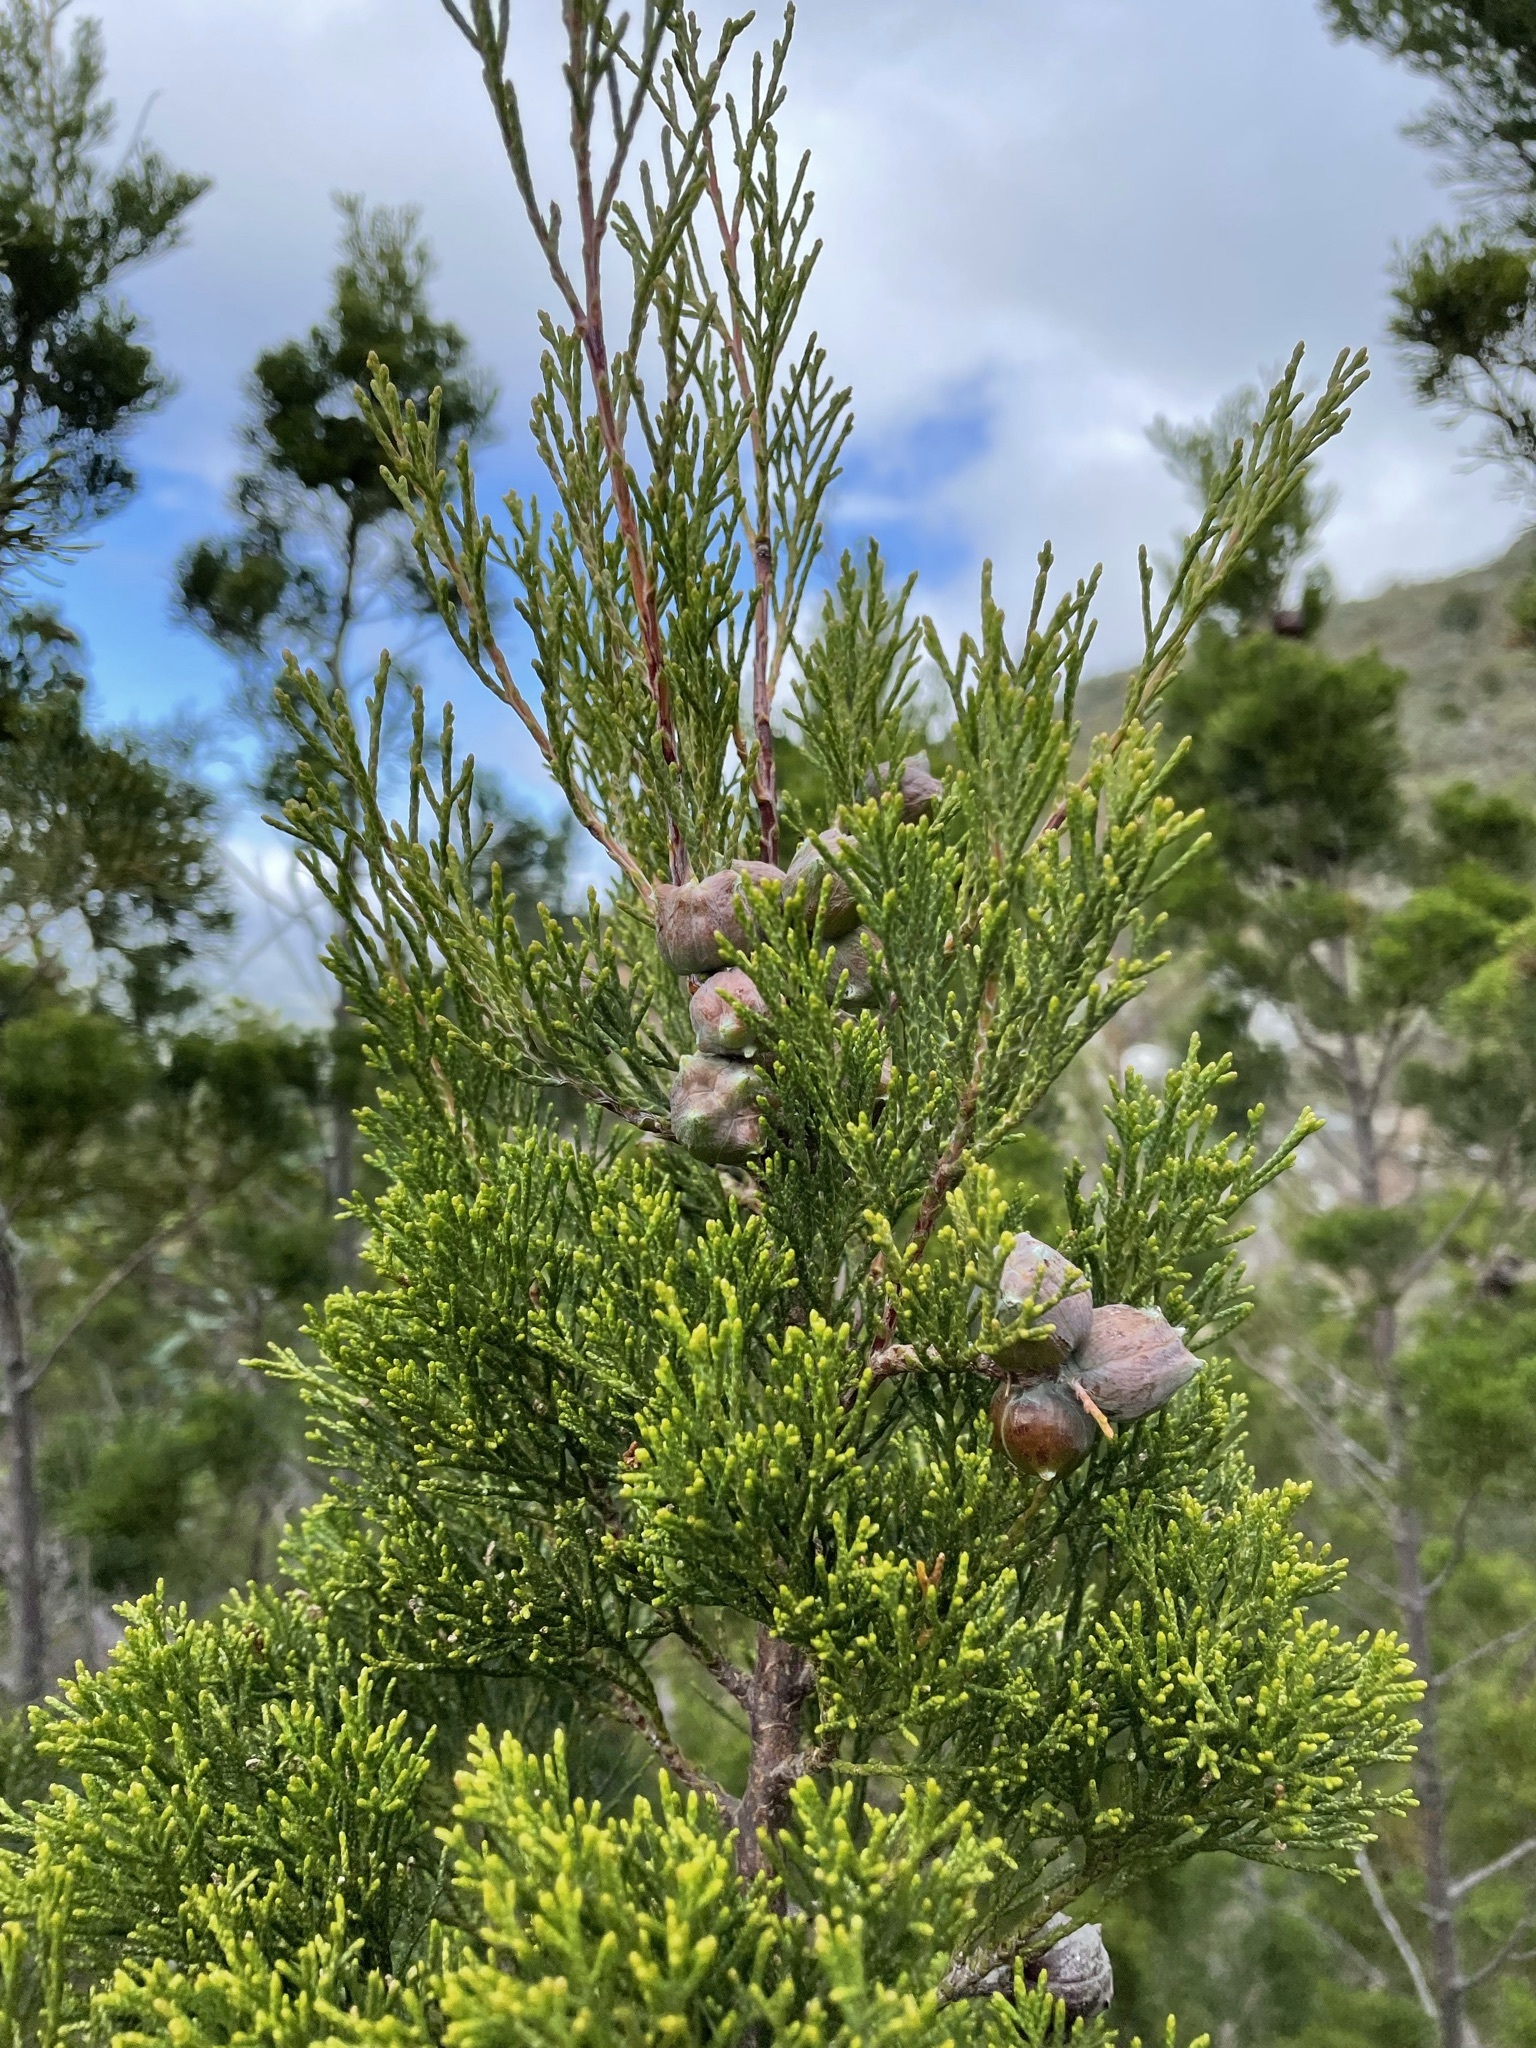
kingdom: Plantae
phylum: Tracheophyta
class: Pinopsida
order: Pinales
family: Cupressaceae
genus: Widdringtonia
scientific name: Widdringtonia nodiflora
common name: Cape cypress
